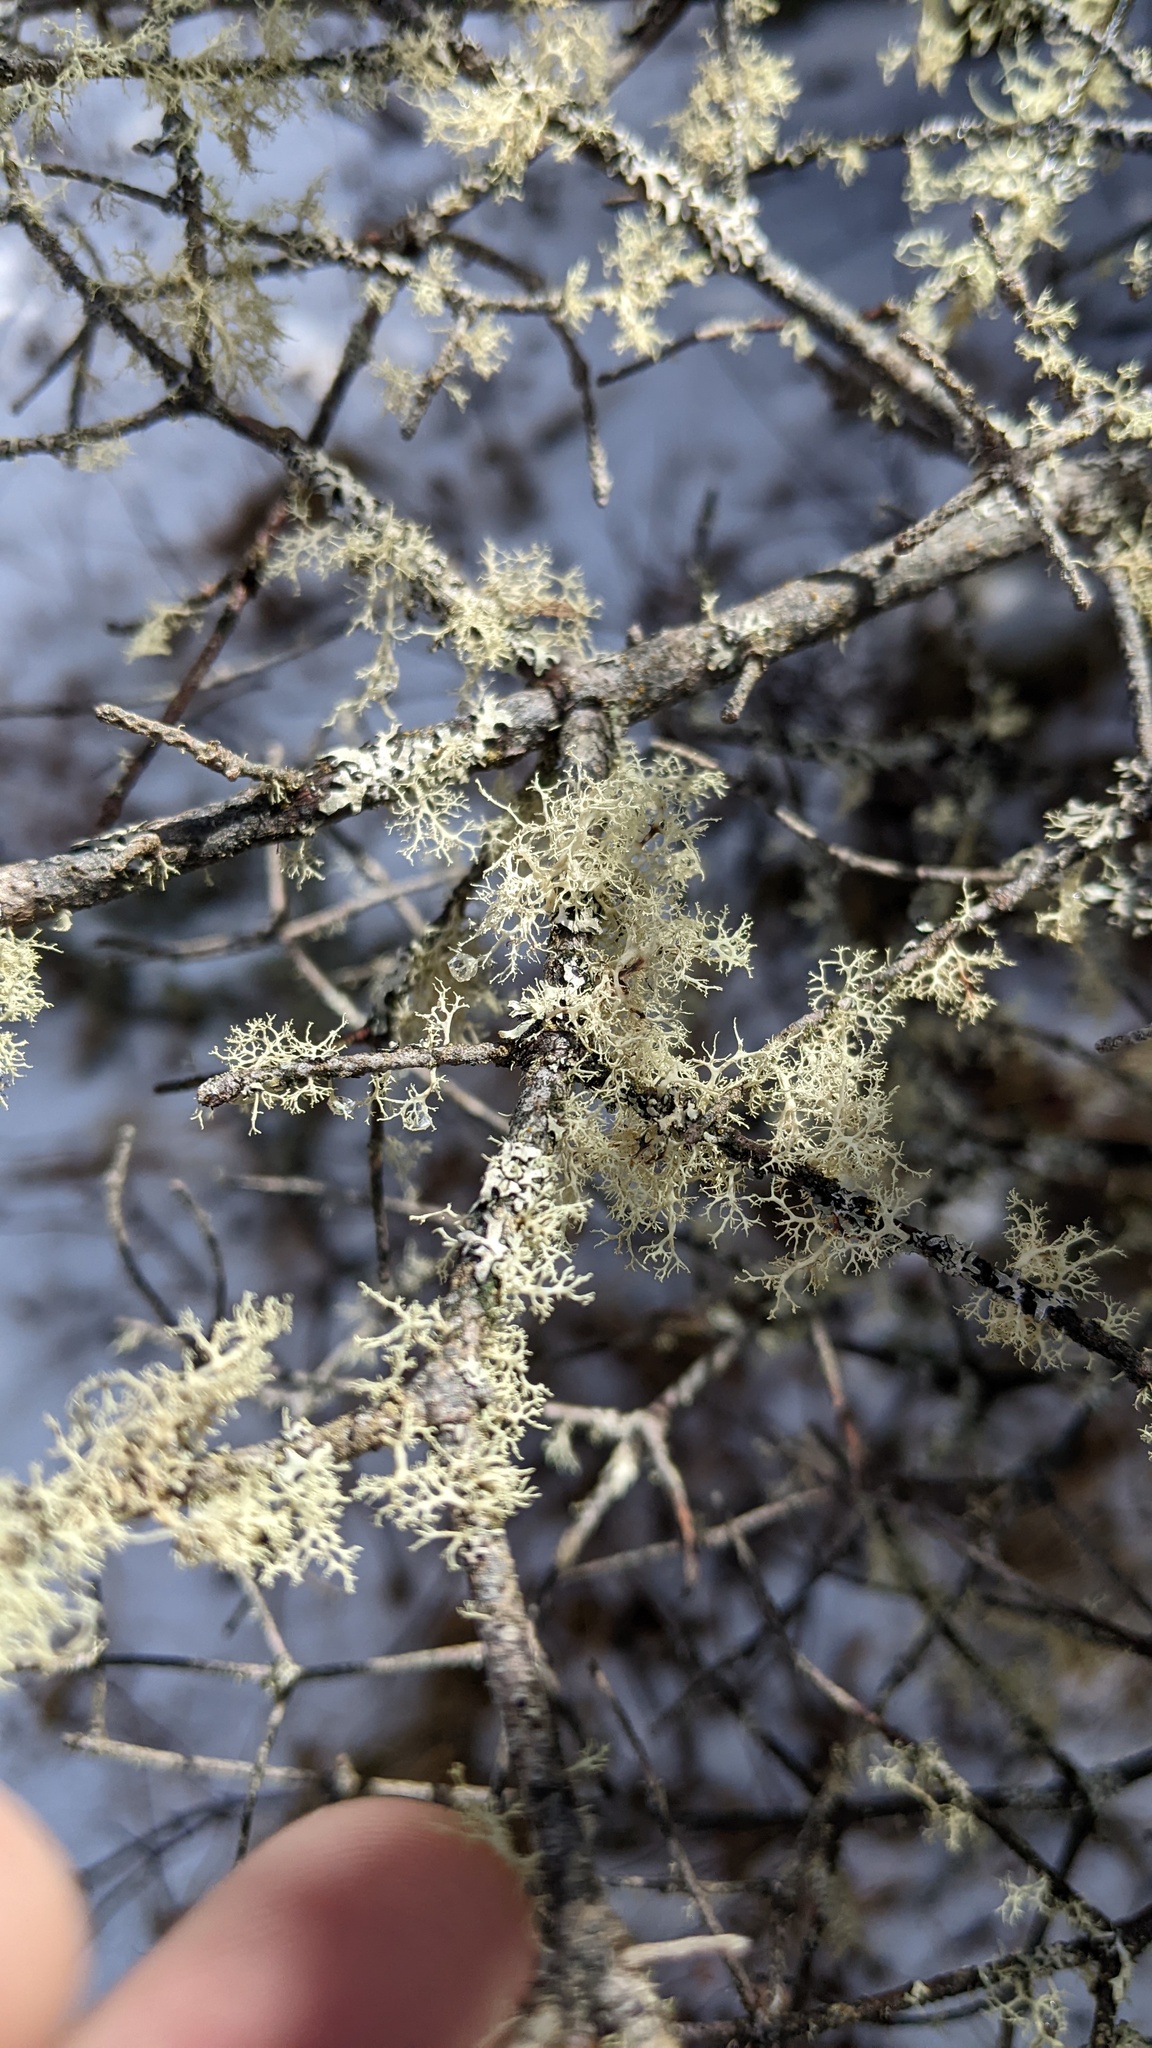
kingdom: Fungi
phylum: Ascomycota
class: Lecanoromycetes
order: Lecanorales
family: Ramalinaceae
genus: Ramalina
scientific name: Ramalina roesleri
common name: Frayed ribbon lichen
